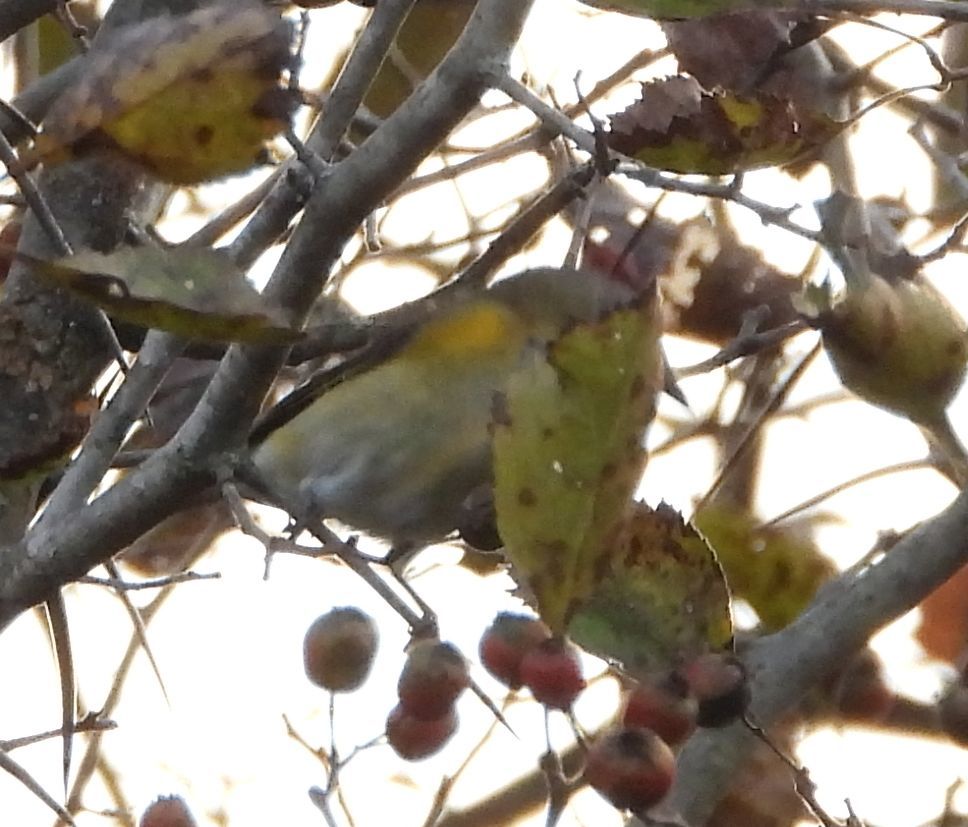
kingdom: Animalia
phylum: Chordata
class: Aves
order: Passeriformes
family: Parulidae
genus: Setophaga
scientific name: Setophaga ruticilla
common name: American redstart
